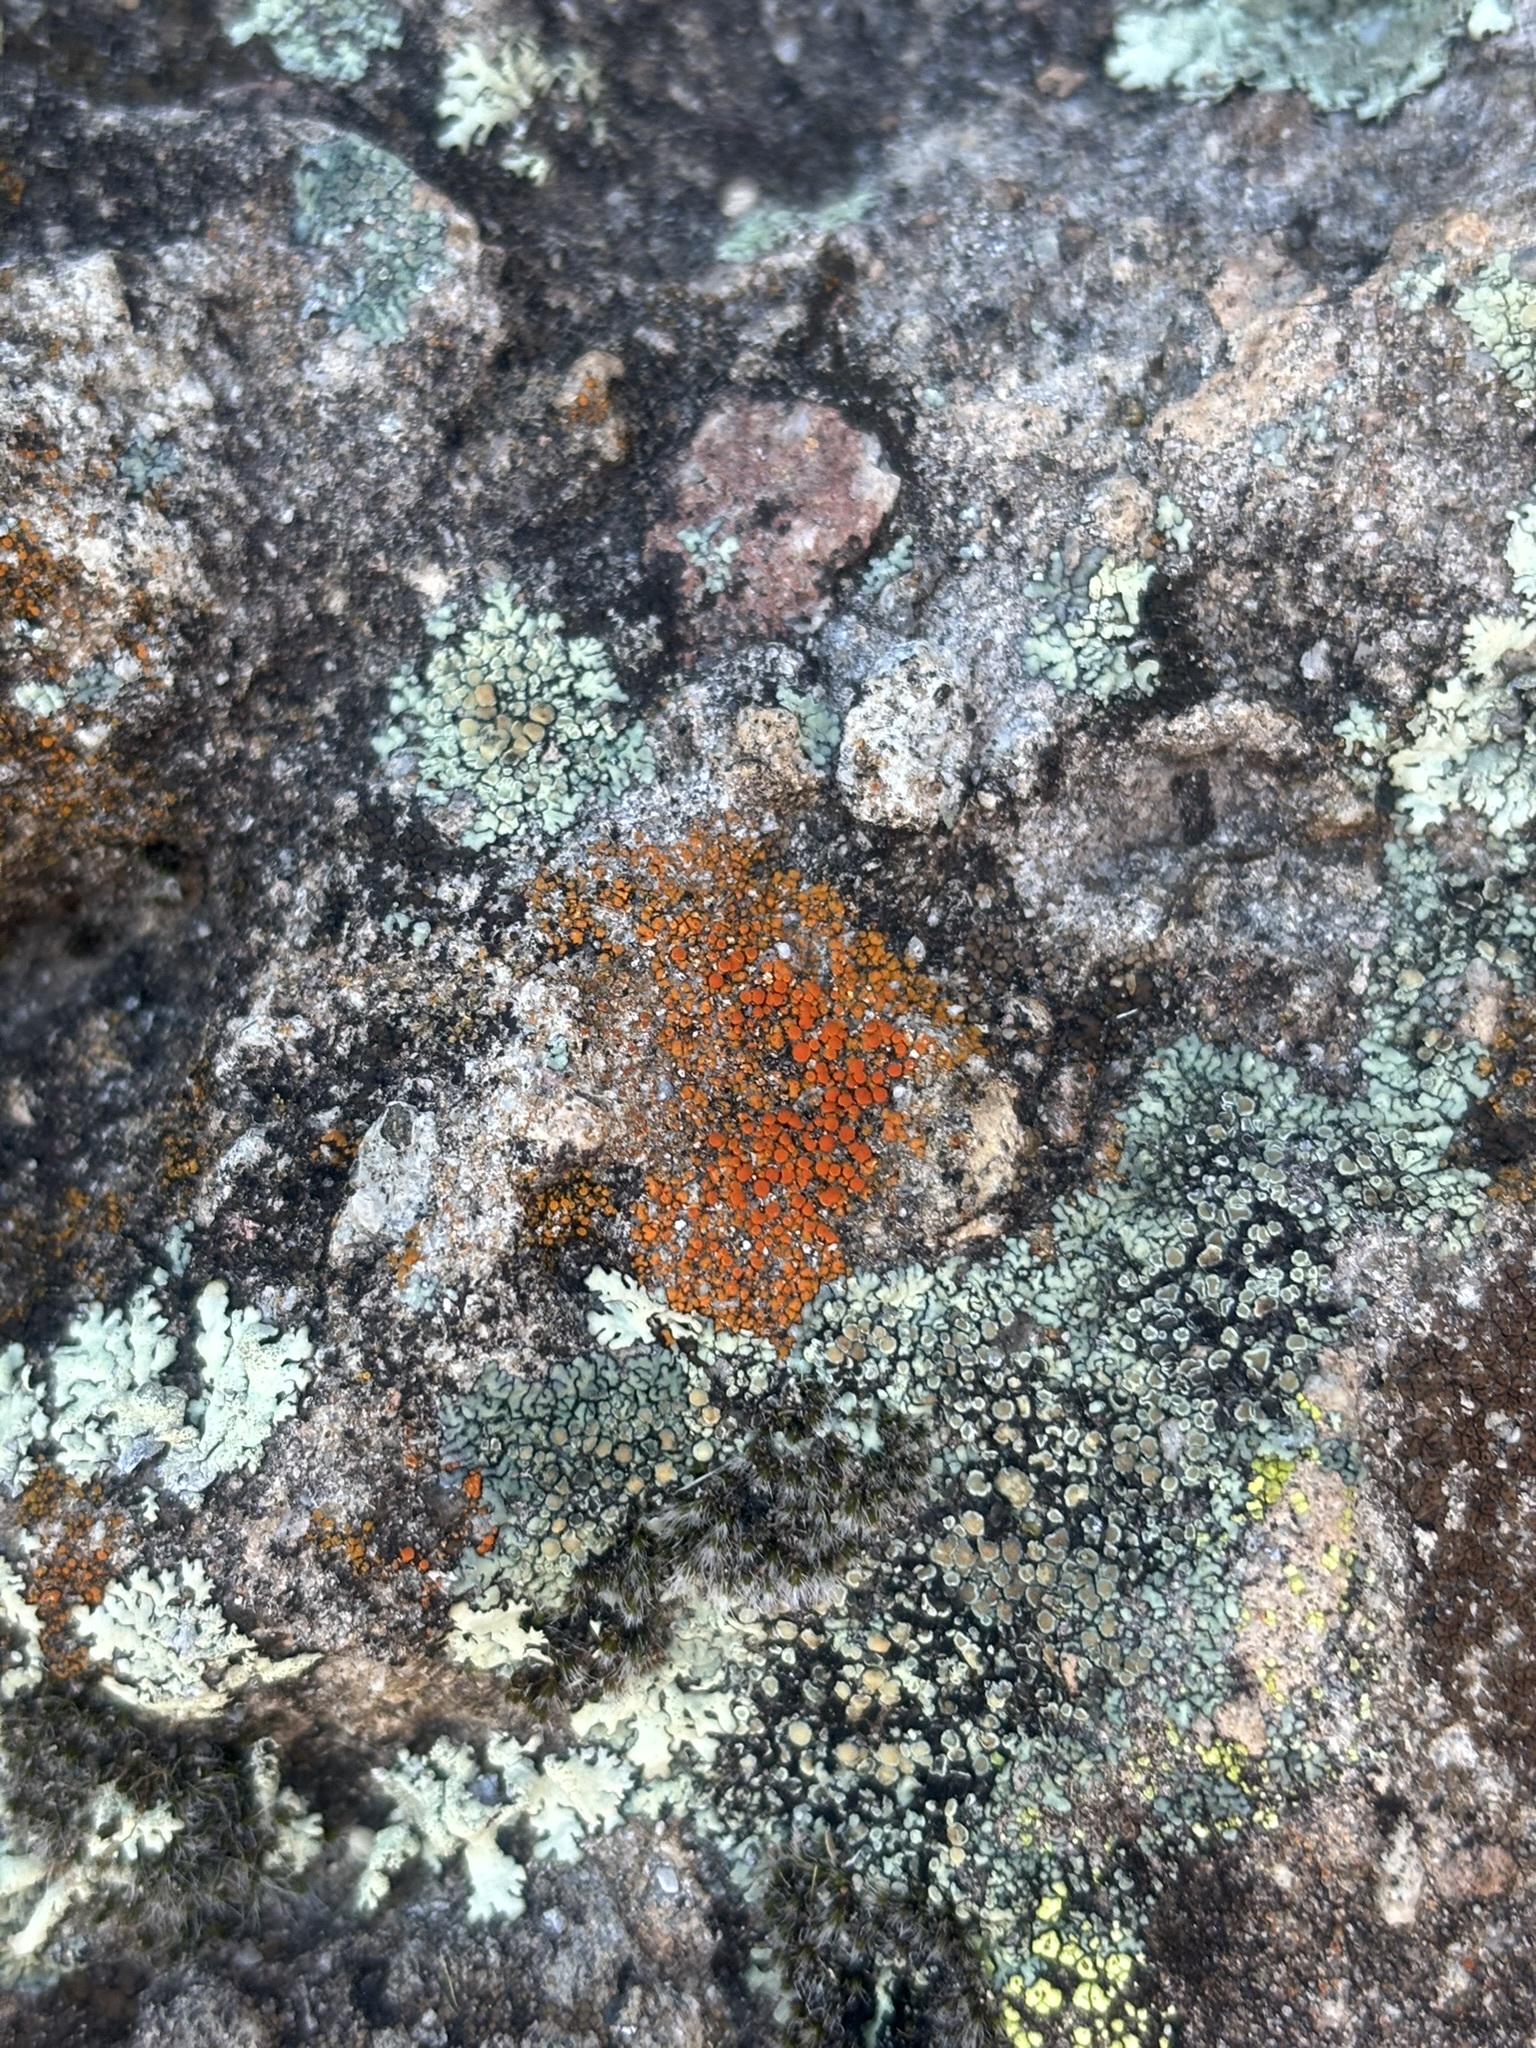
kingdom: Fungi
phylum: Ascomycota
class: Lecanoromycetes
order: Teloschistales
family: Teloschistaceae
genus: Squamulea
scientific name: Squamulea subsoluta
